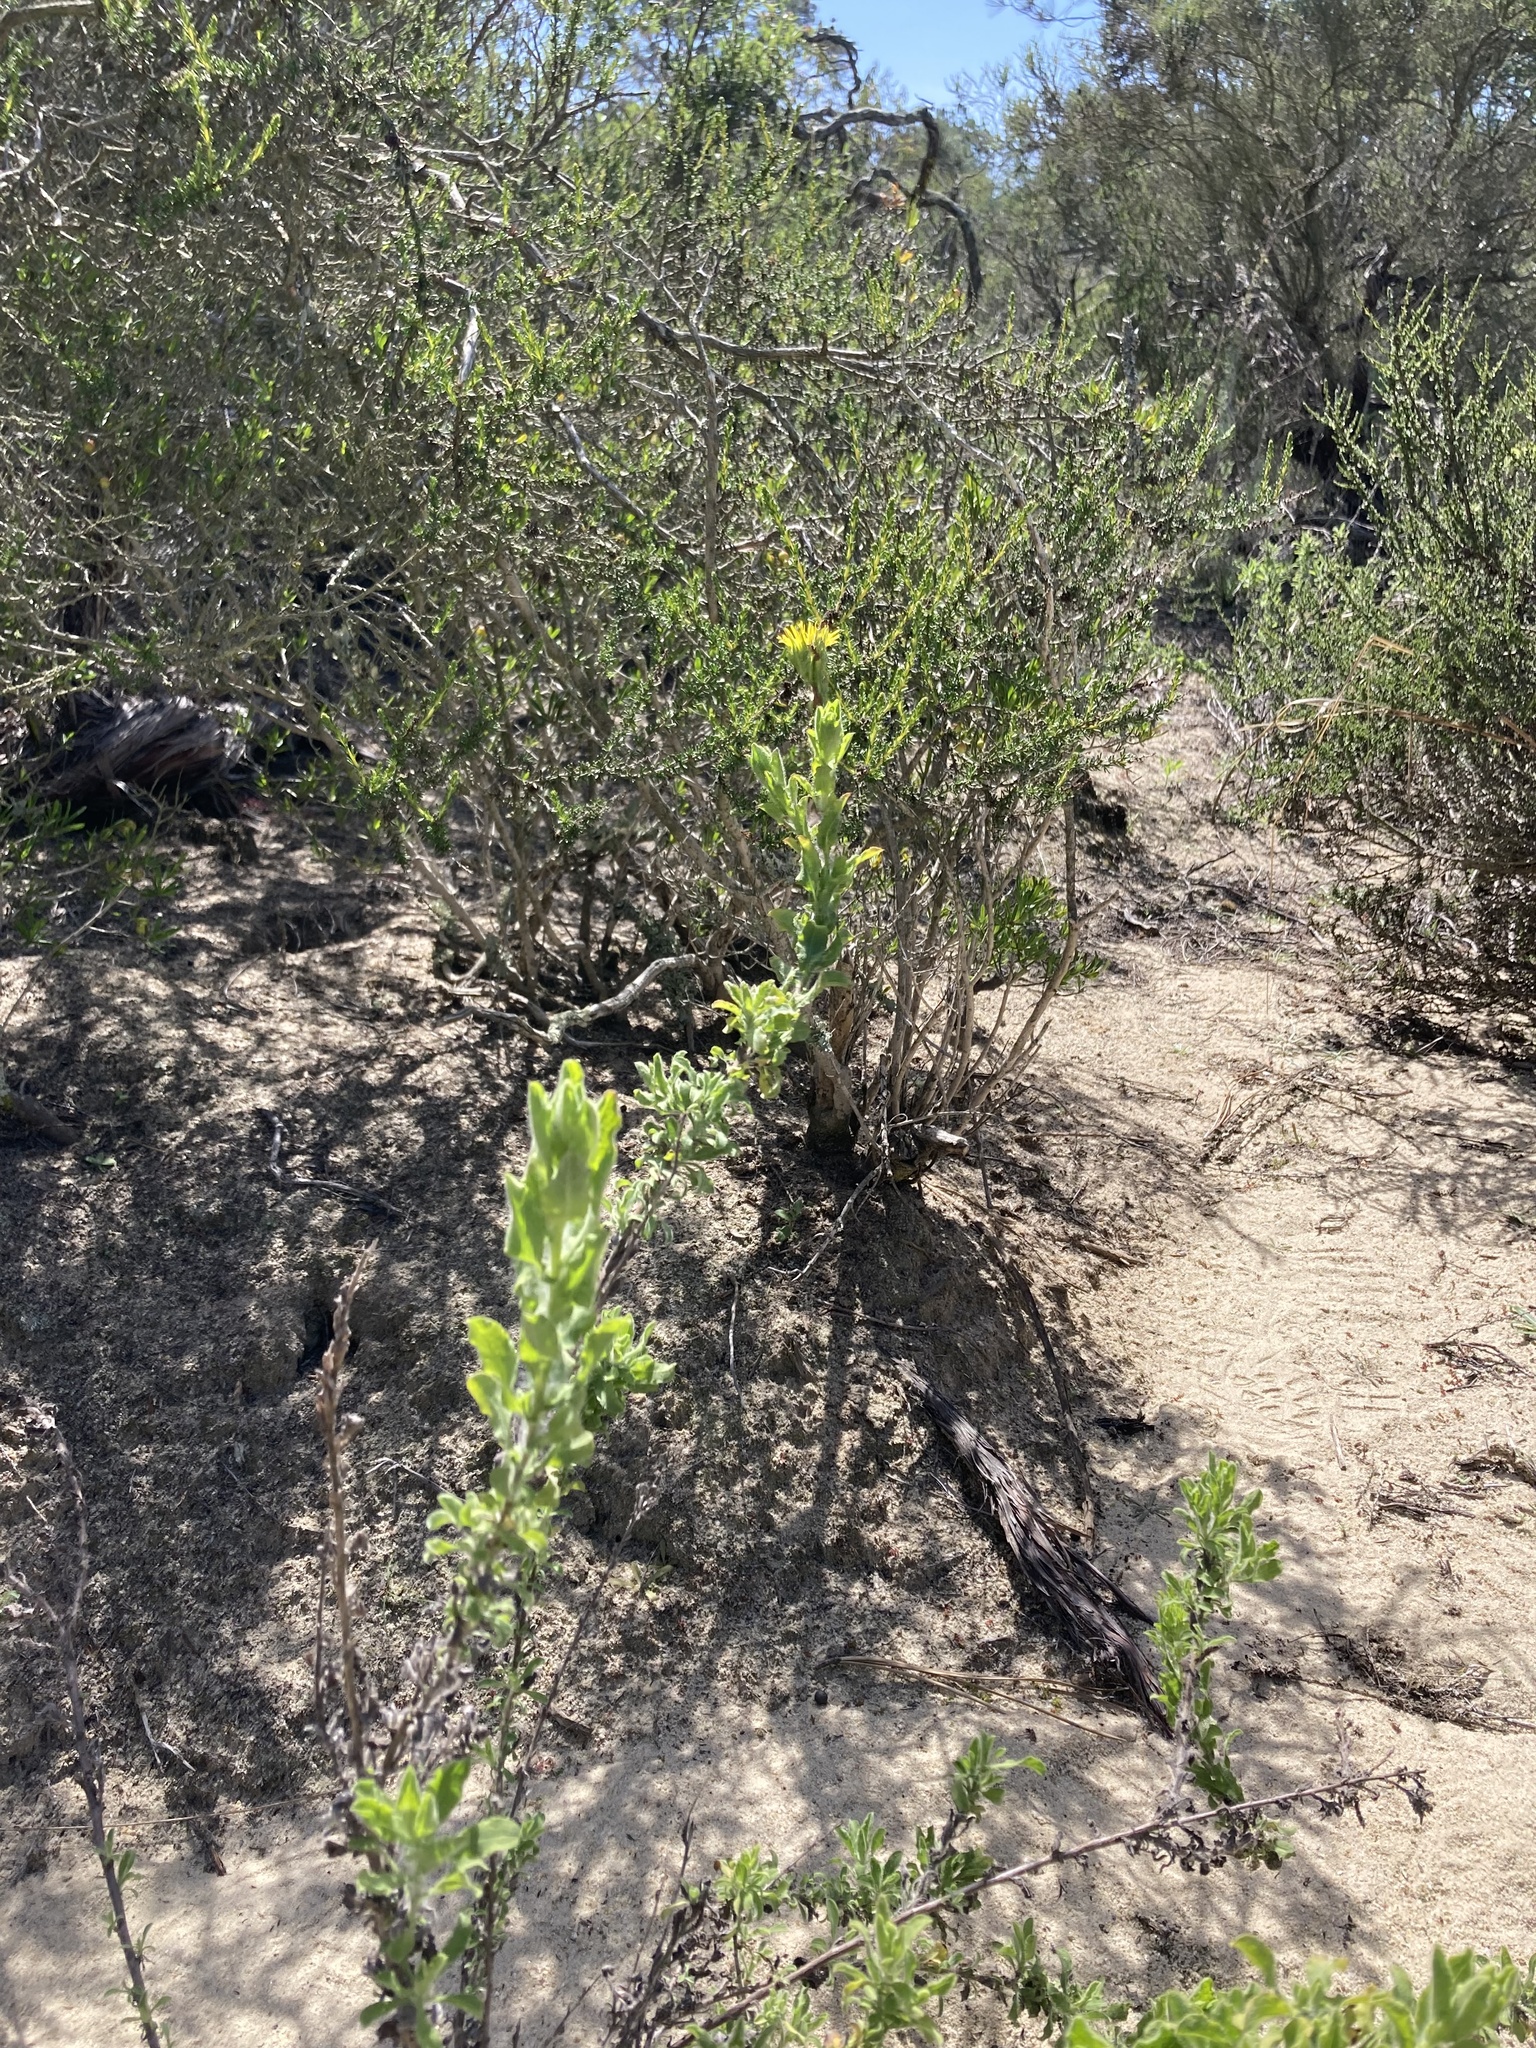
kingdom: Plantae
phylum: Tracheophyta
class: Magnoliopsida
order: Asterales
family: Asteraceae
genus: Heterotheca
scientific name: Heterotheca sessiliflora
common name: Sessile-flower golden-aster
